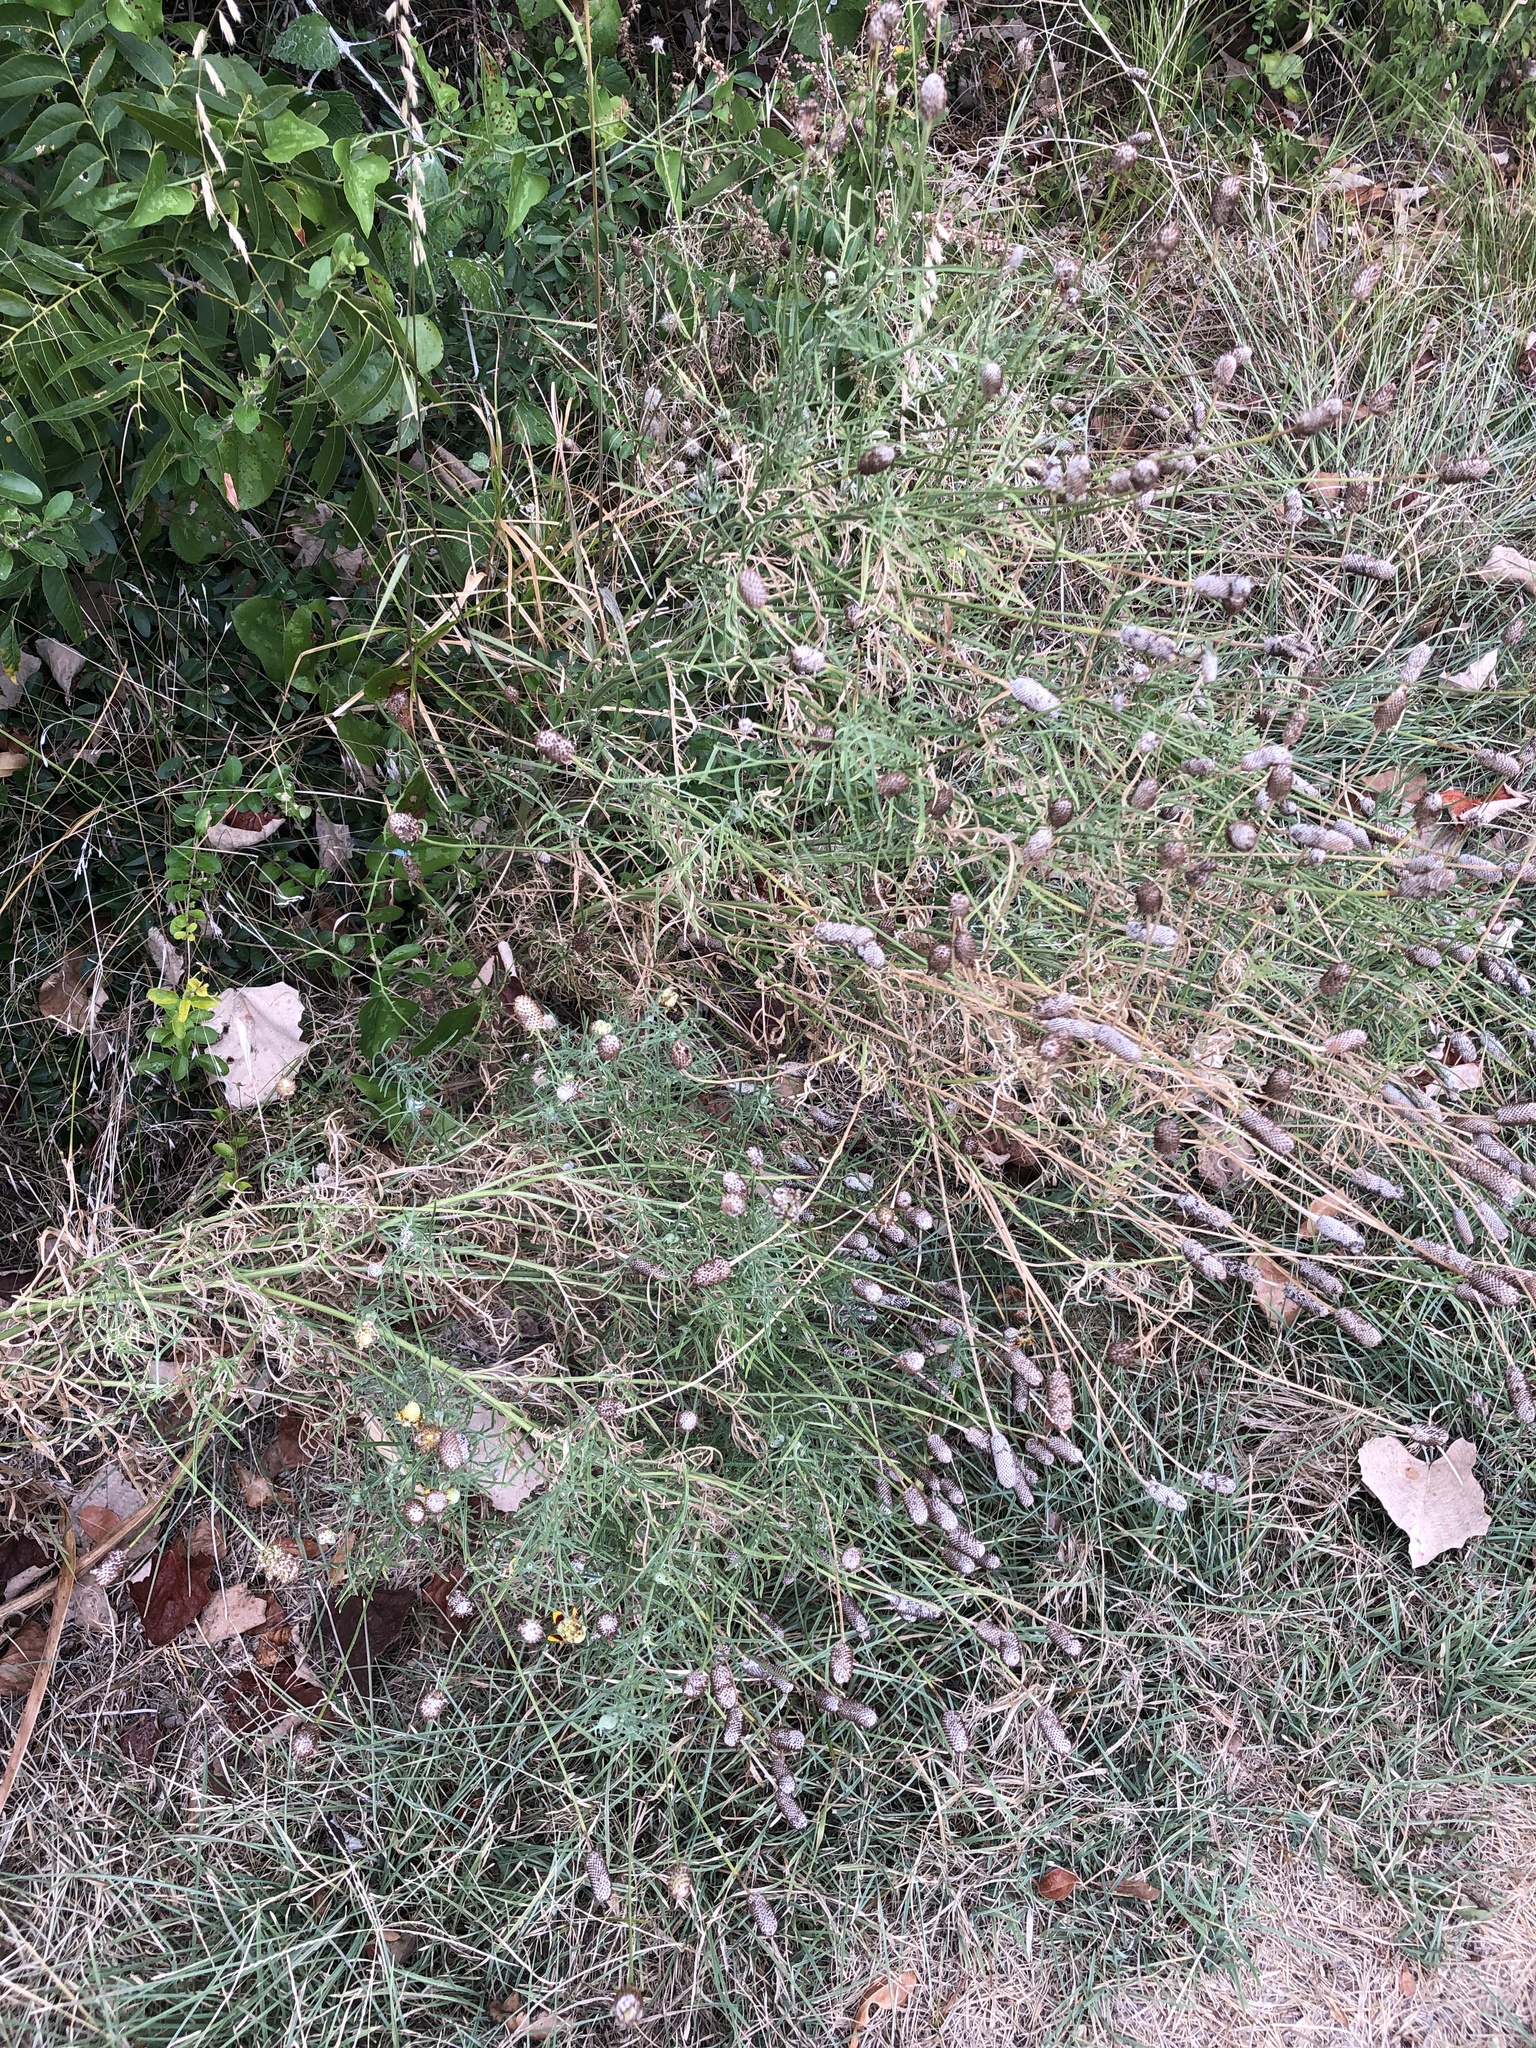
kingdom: Plantae
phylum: Tracheophyta
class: Magnoliopsida
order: Asterales
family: Asteraceae
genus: Ratibida
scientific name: Ratibida columnifera
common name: Prairie coneflower
